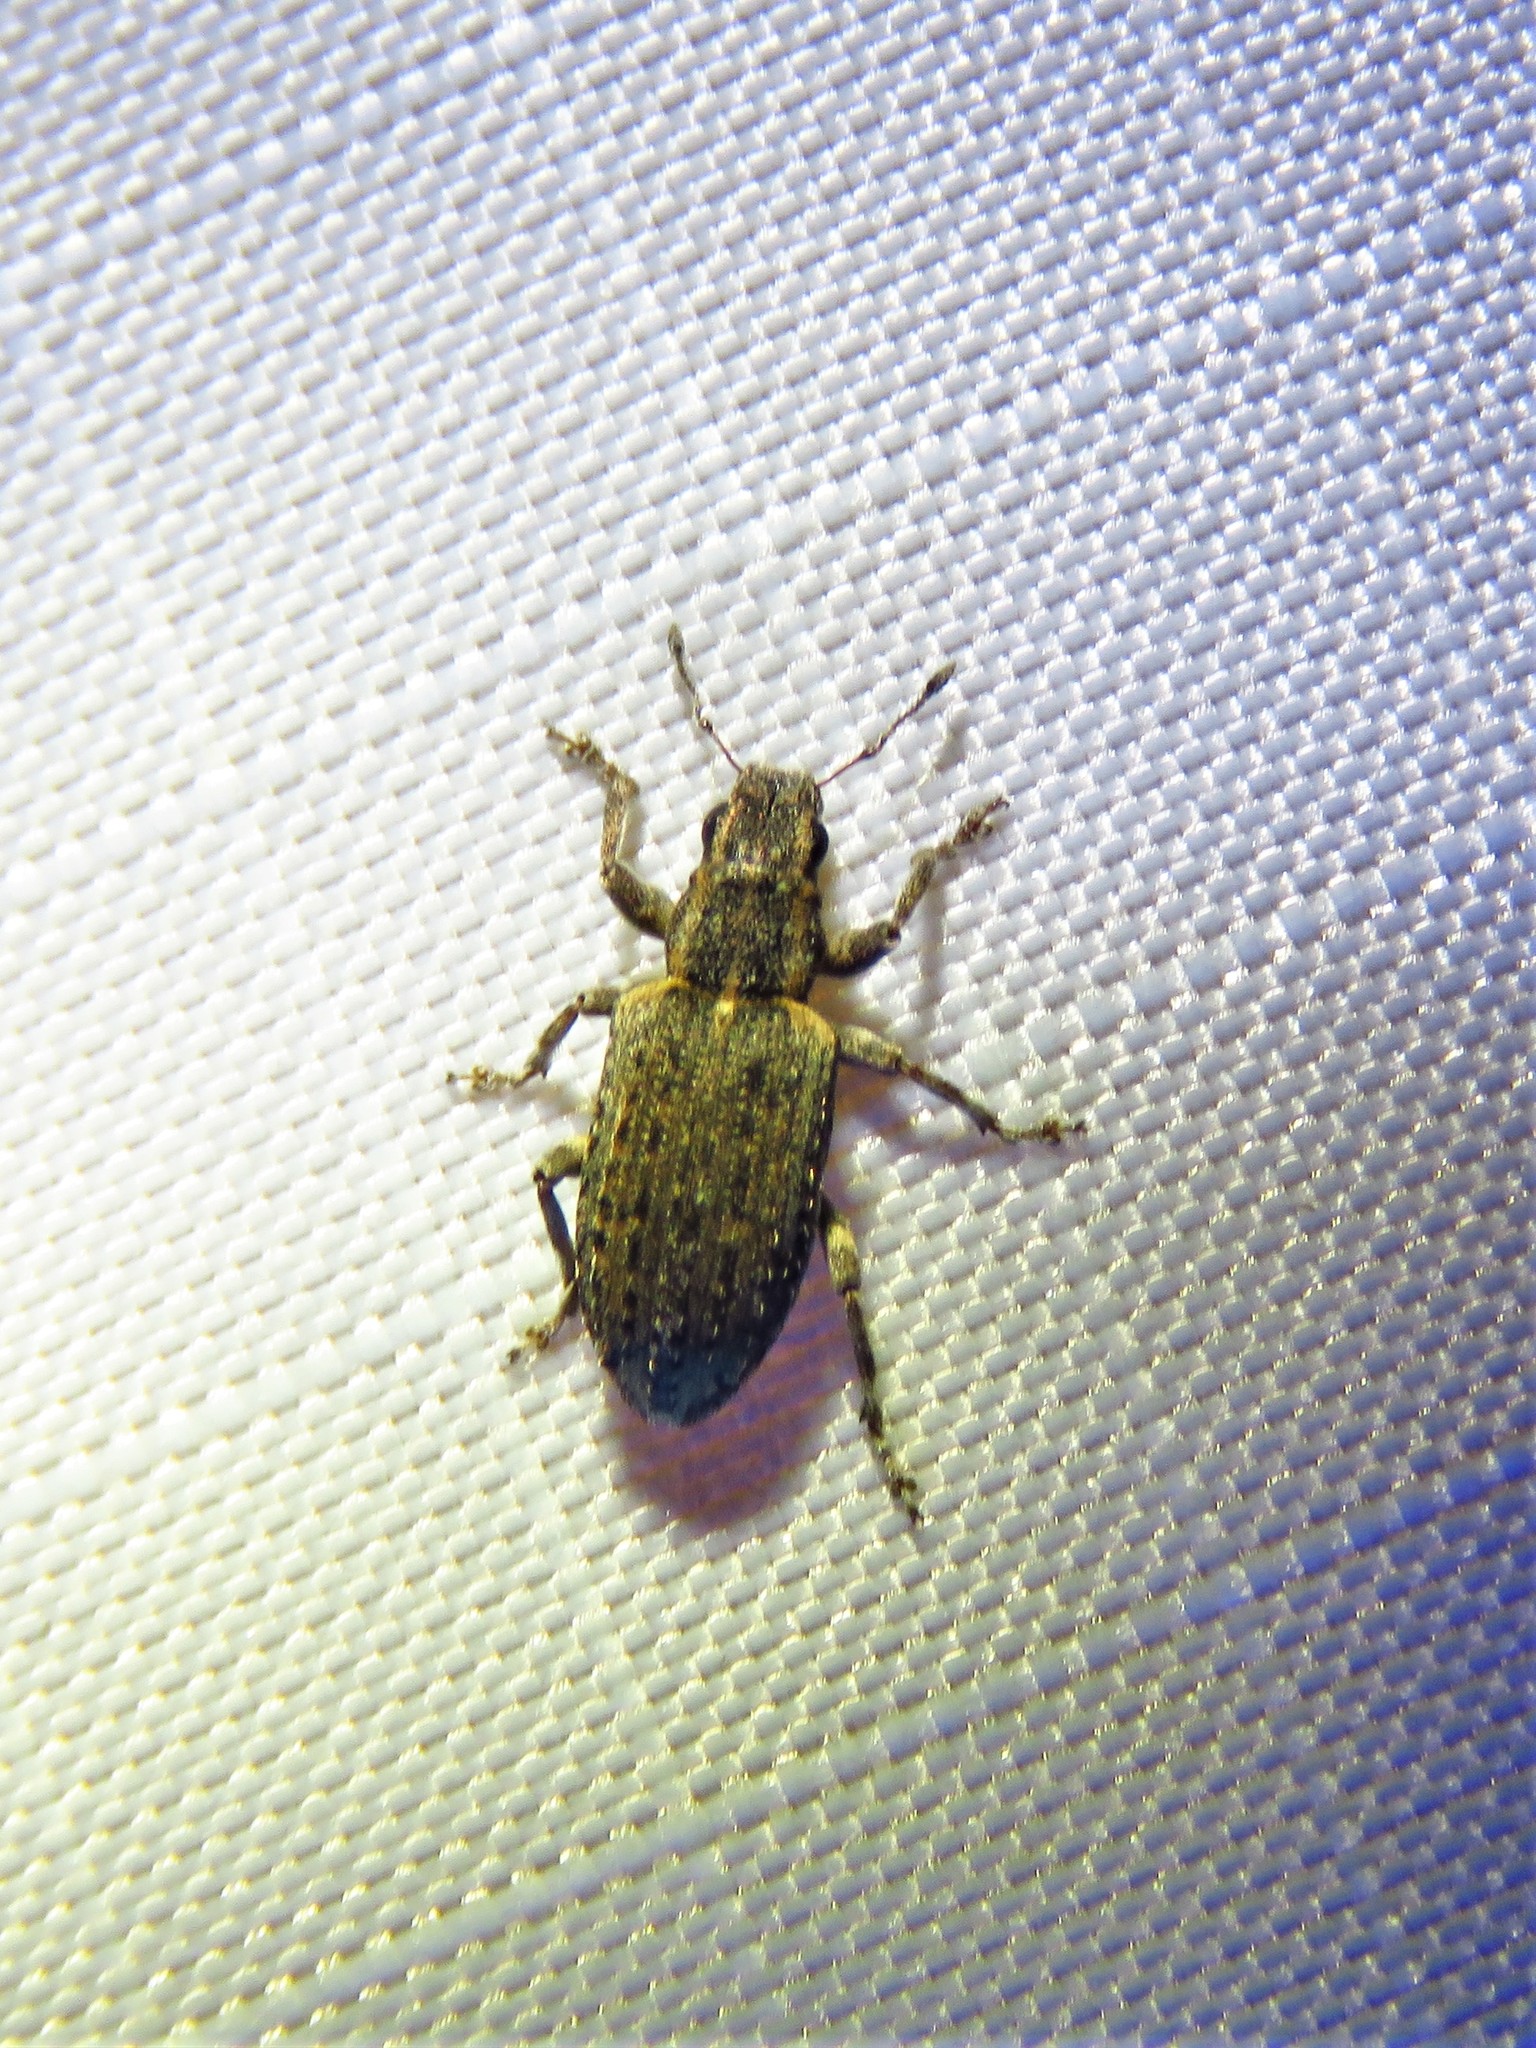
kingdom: Animalia
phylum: Arthropoda
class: Insecta
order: Coleoptera
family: Curculionidae
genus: Sitones
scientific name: Sitones californius
